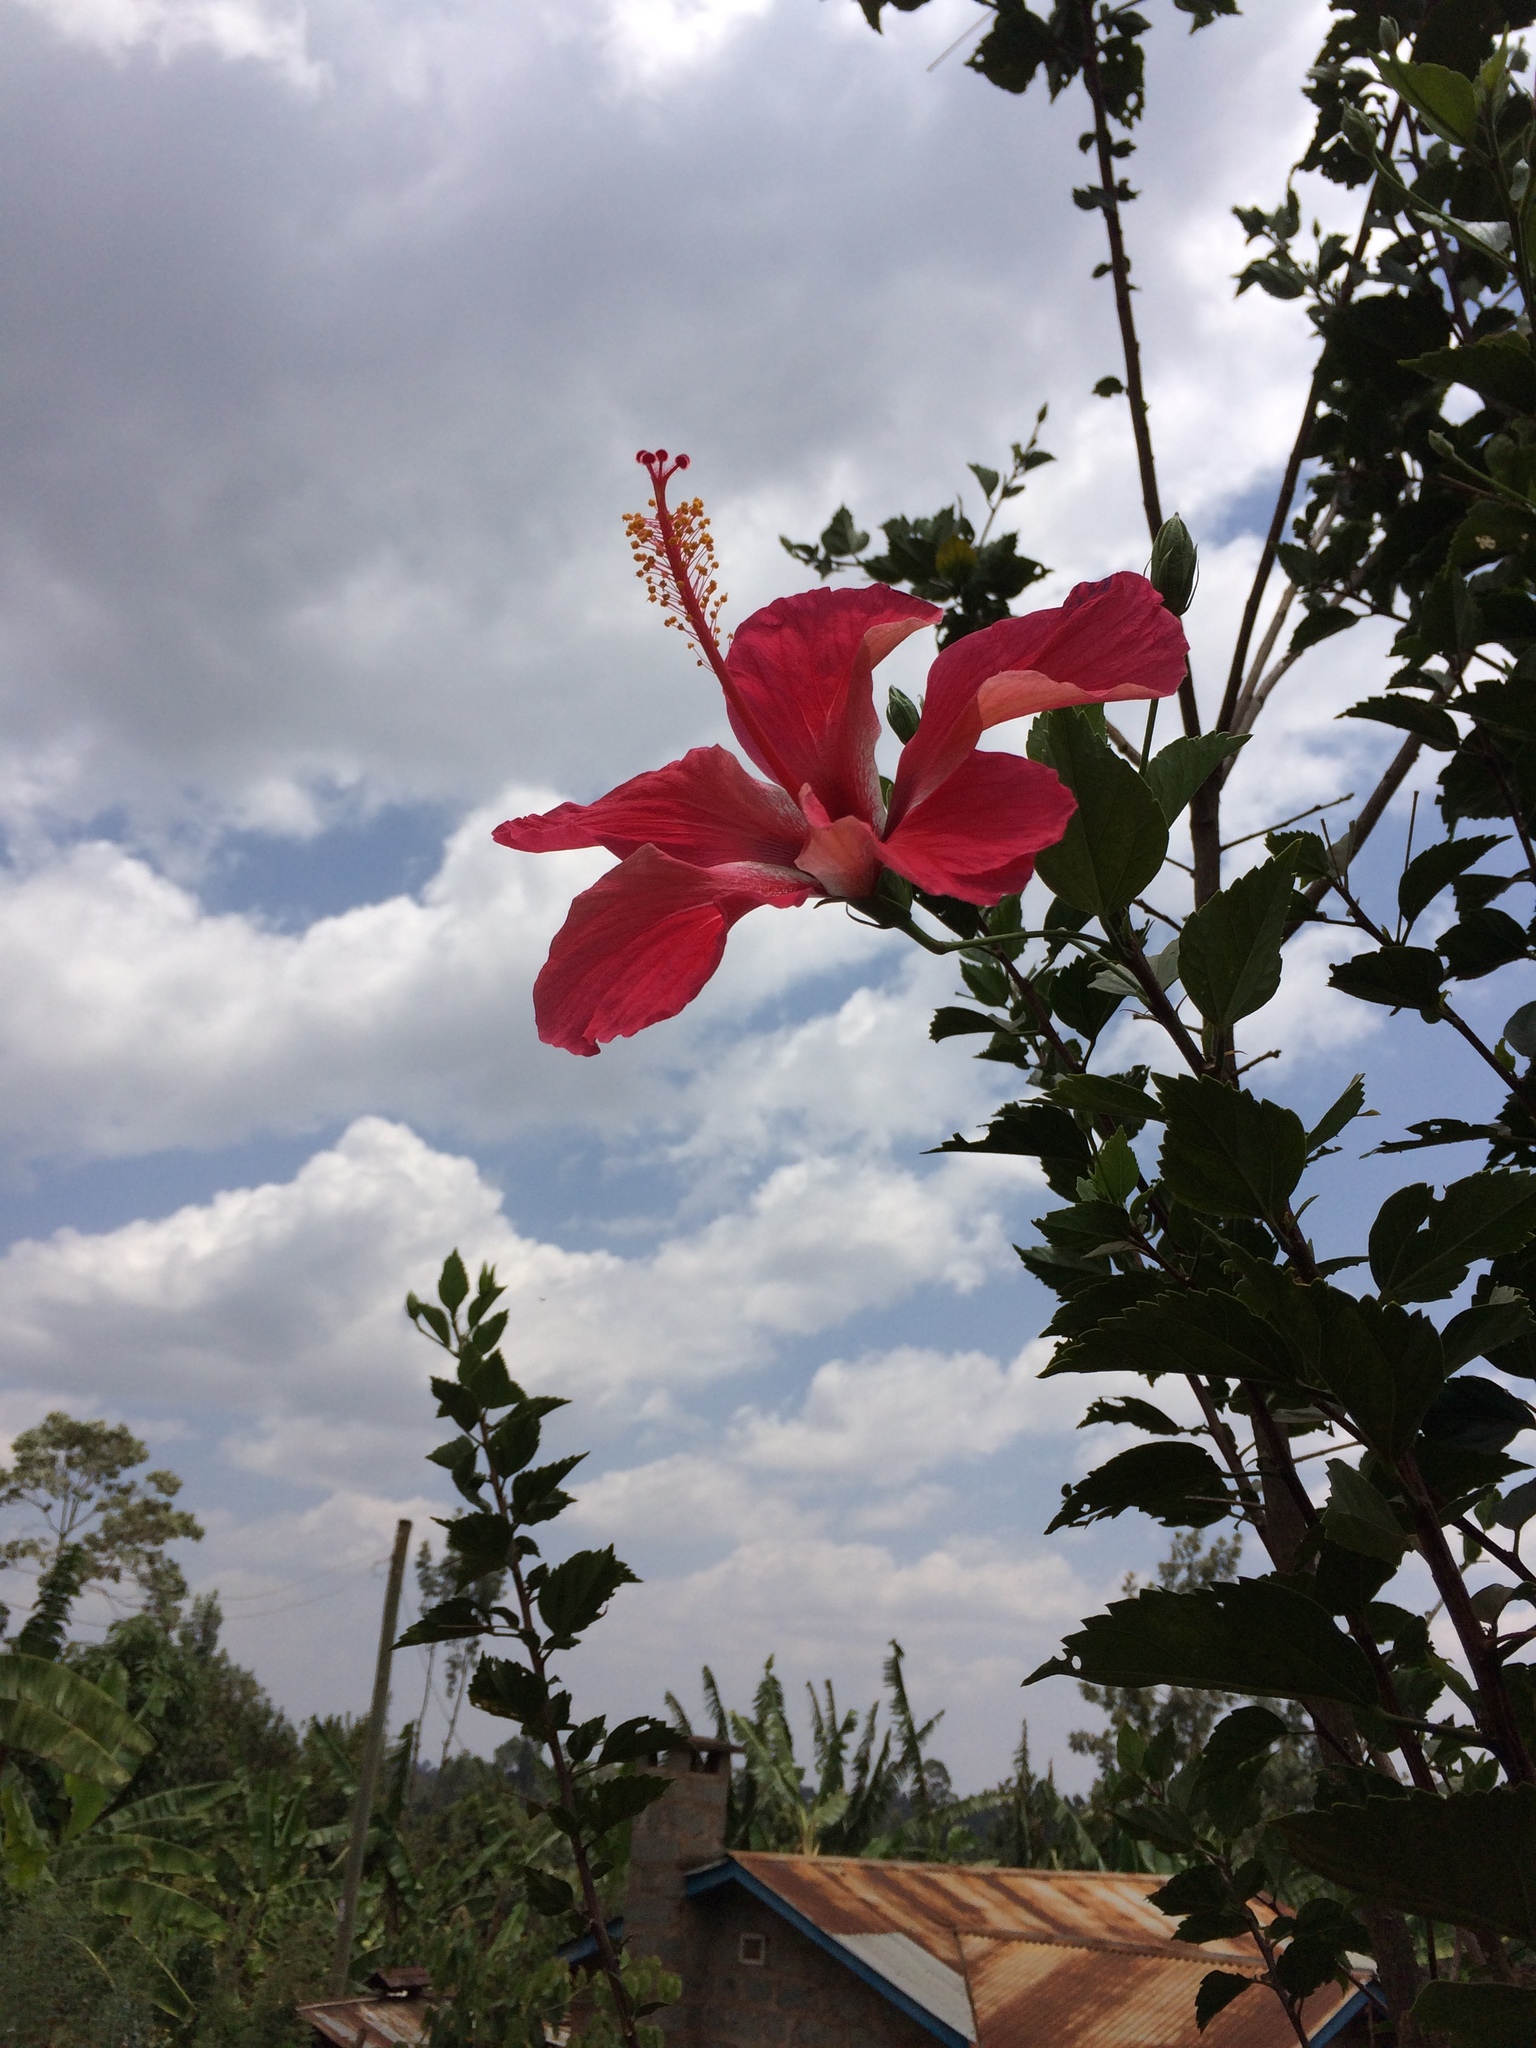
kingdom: Plantae
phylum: Tracheophyta
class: Magnoliopsida
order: Malvales
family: Malvaceae
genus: Hibiscus
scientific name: Hibiscus rosa-sinensis
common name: Hibiscus
